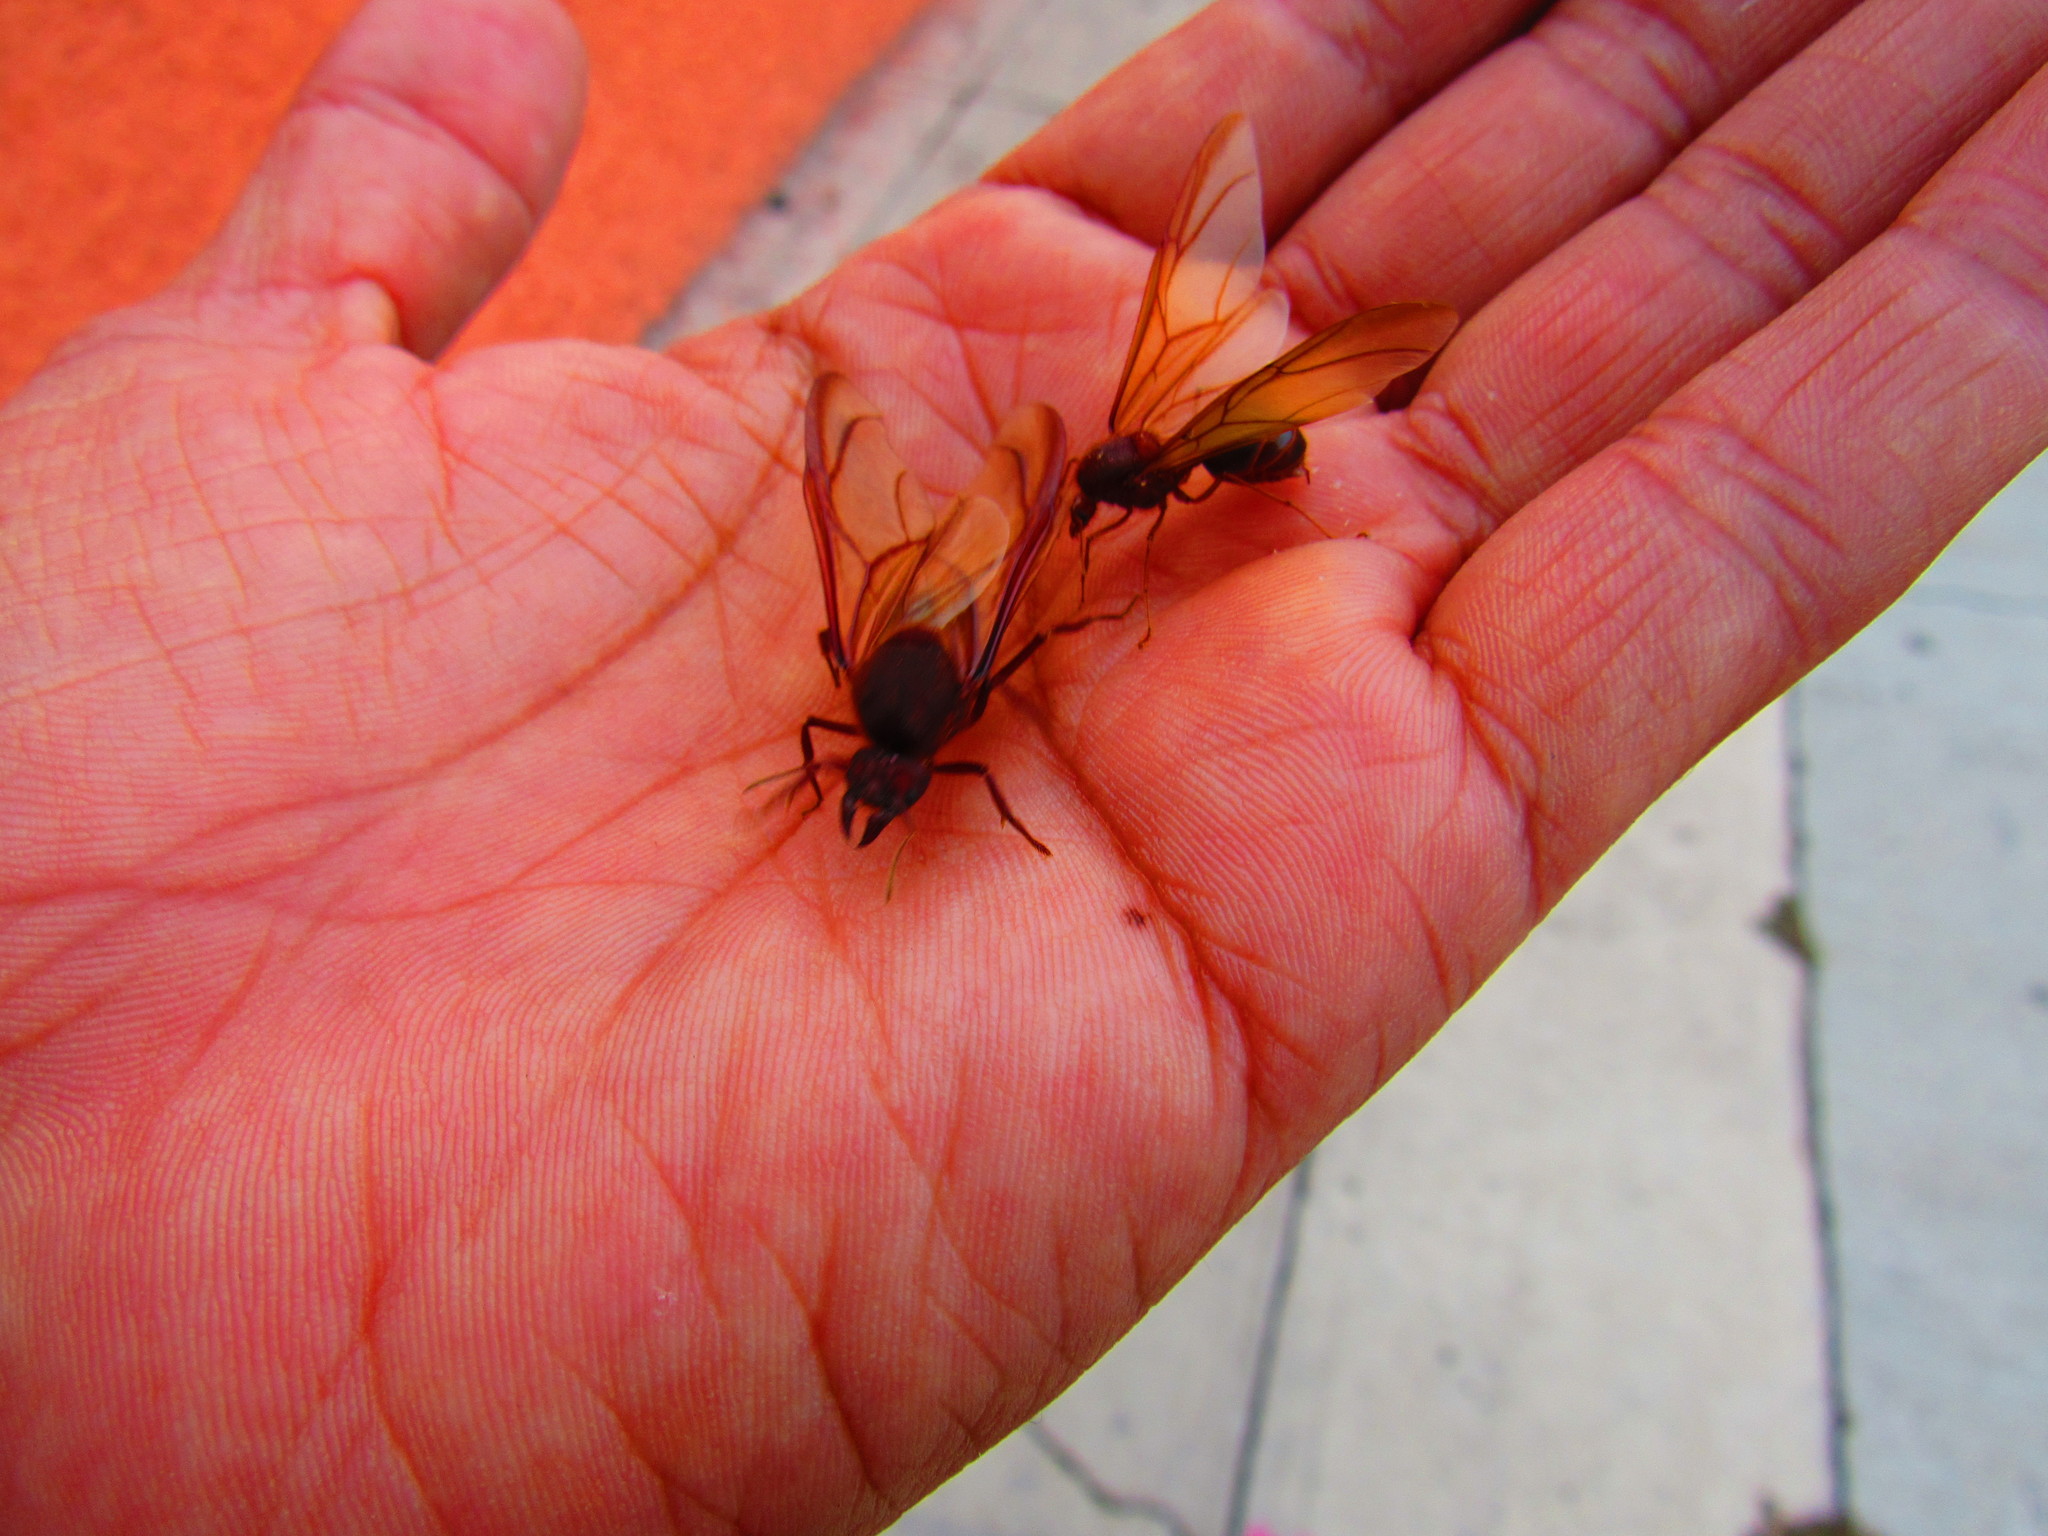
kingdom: Animalia
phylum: Arthropoda
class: Insecta
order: Hymenoptera
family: Formicidae
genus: Atta
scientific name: Atta mexicana
